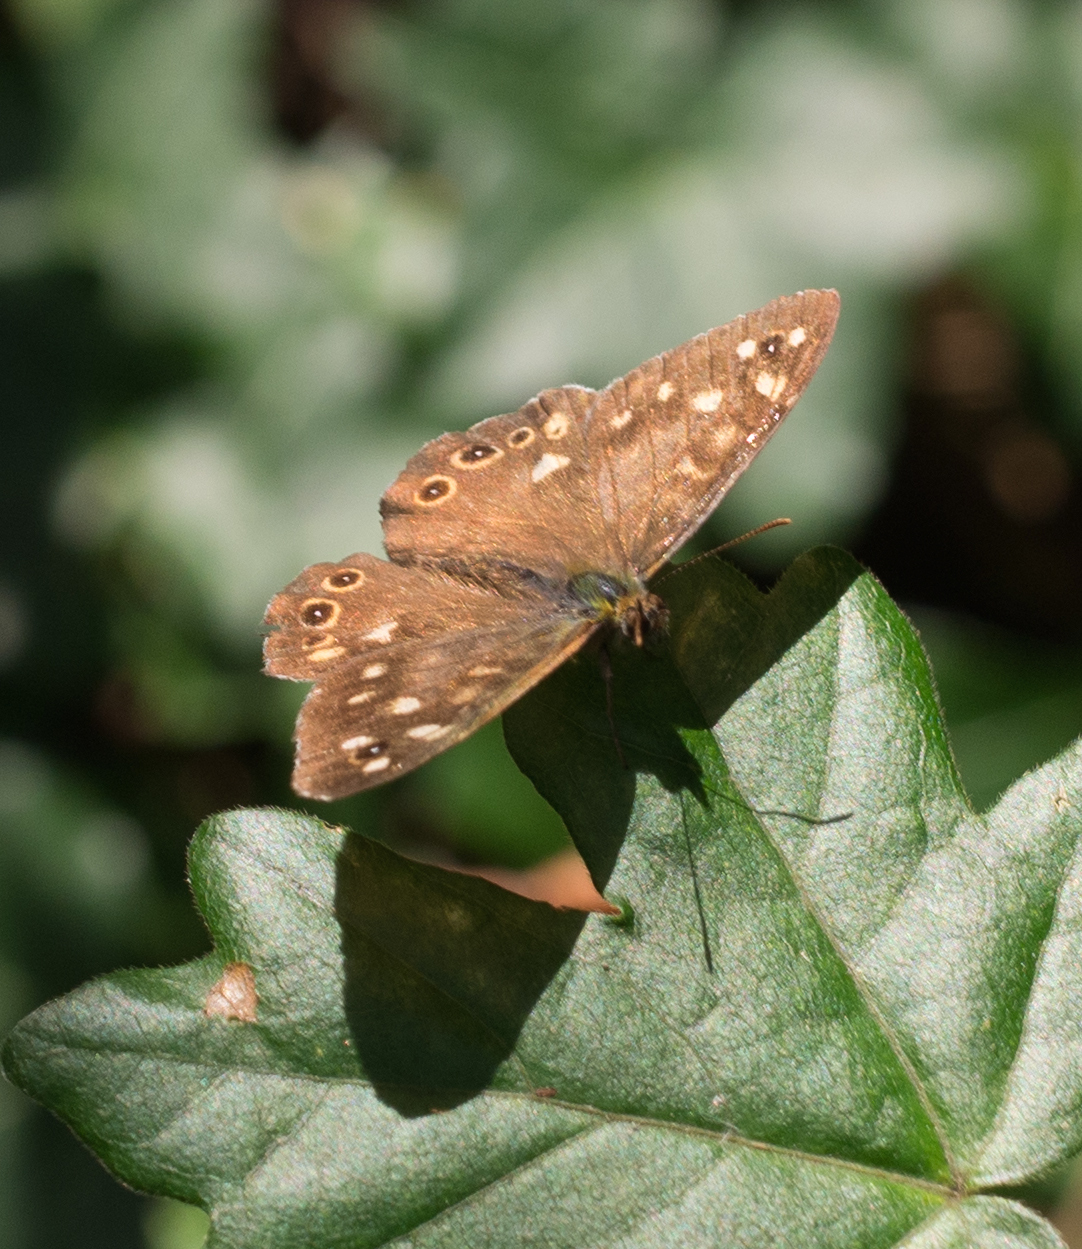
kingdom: Animalia
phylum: Arthropoda
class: Insecta
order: Lepidoptera
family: Nymphalidae
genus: Pararge
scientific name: Pararge aegeria
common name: Speckled wood
